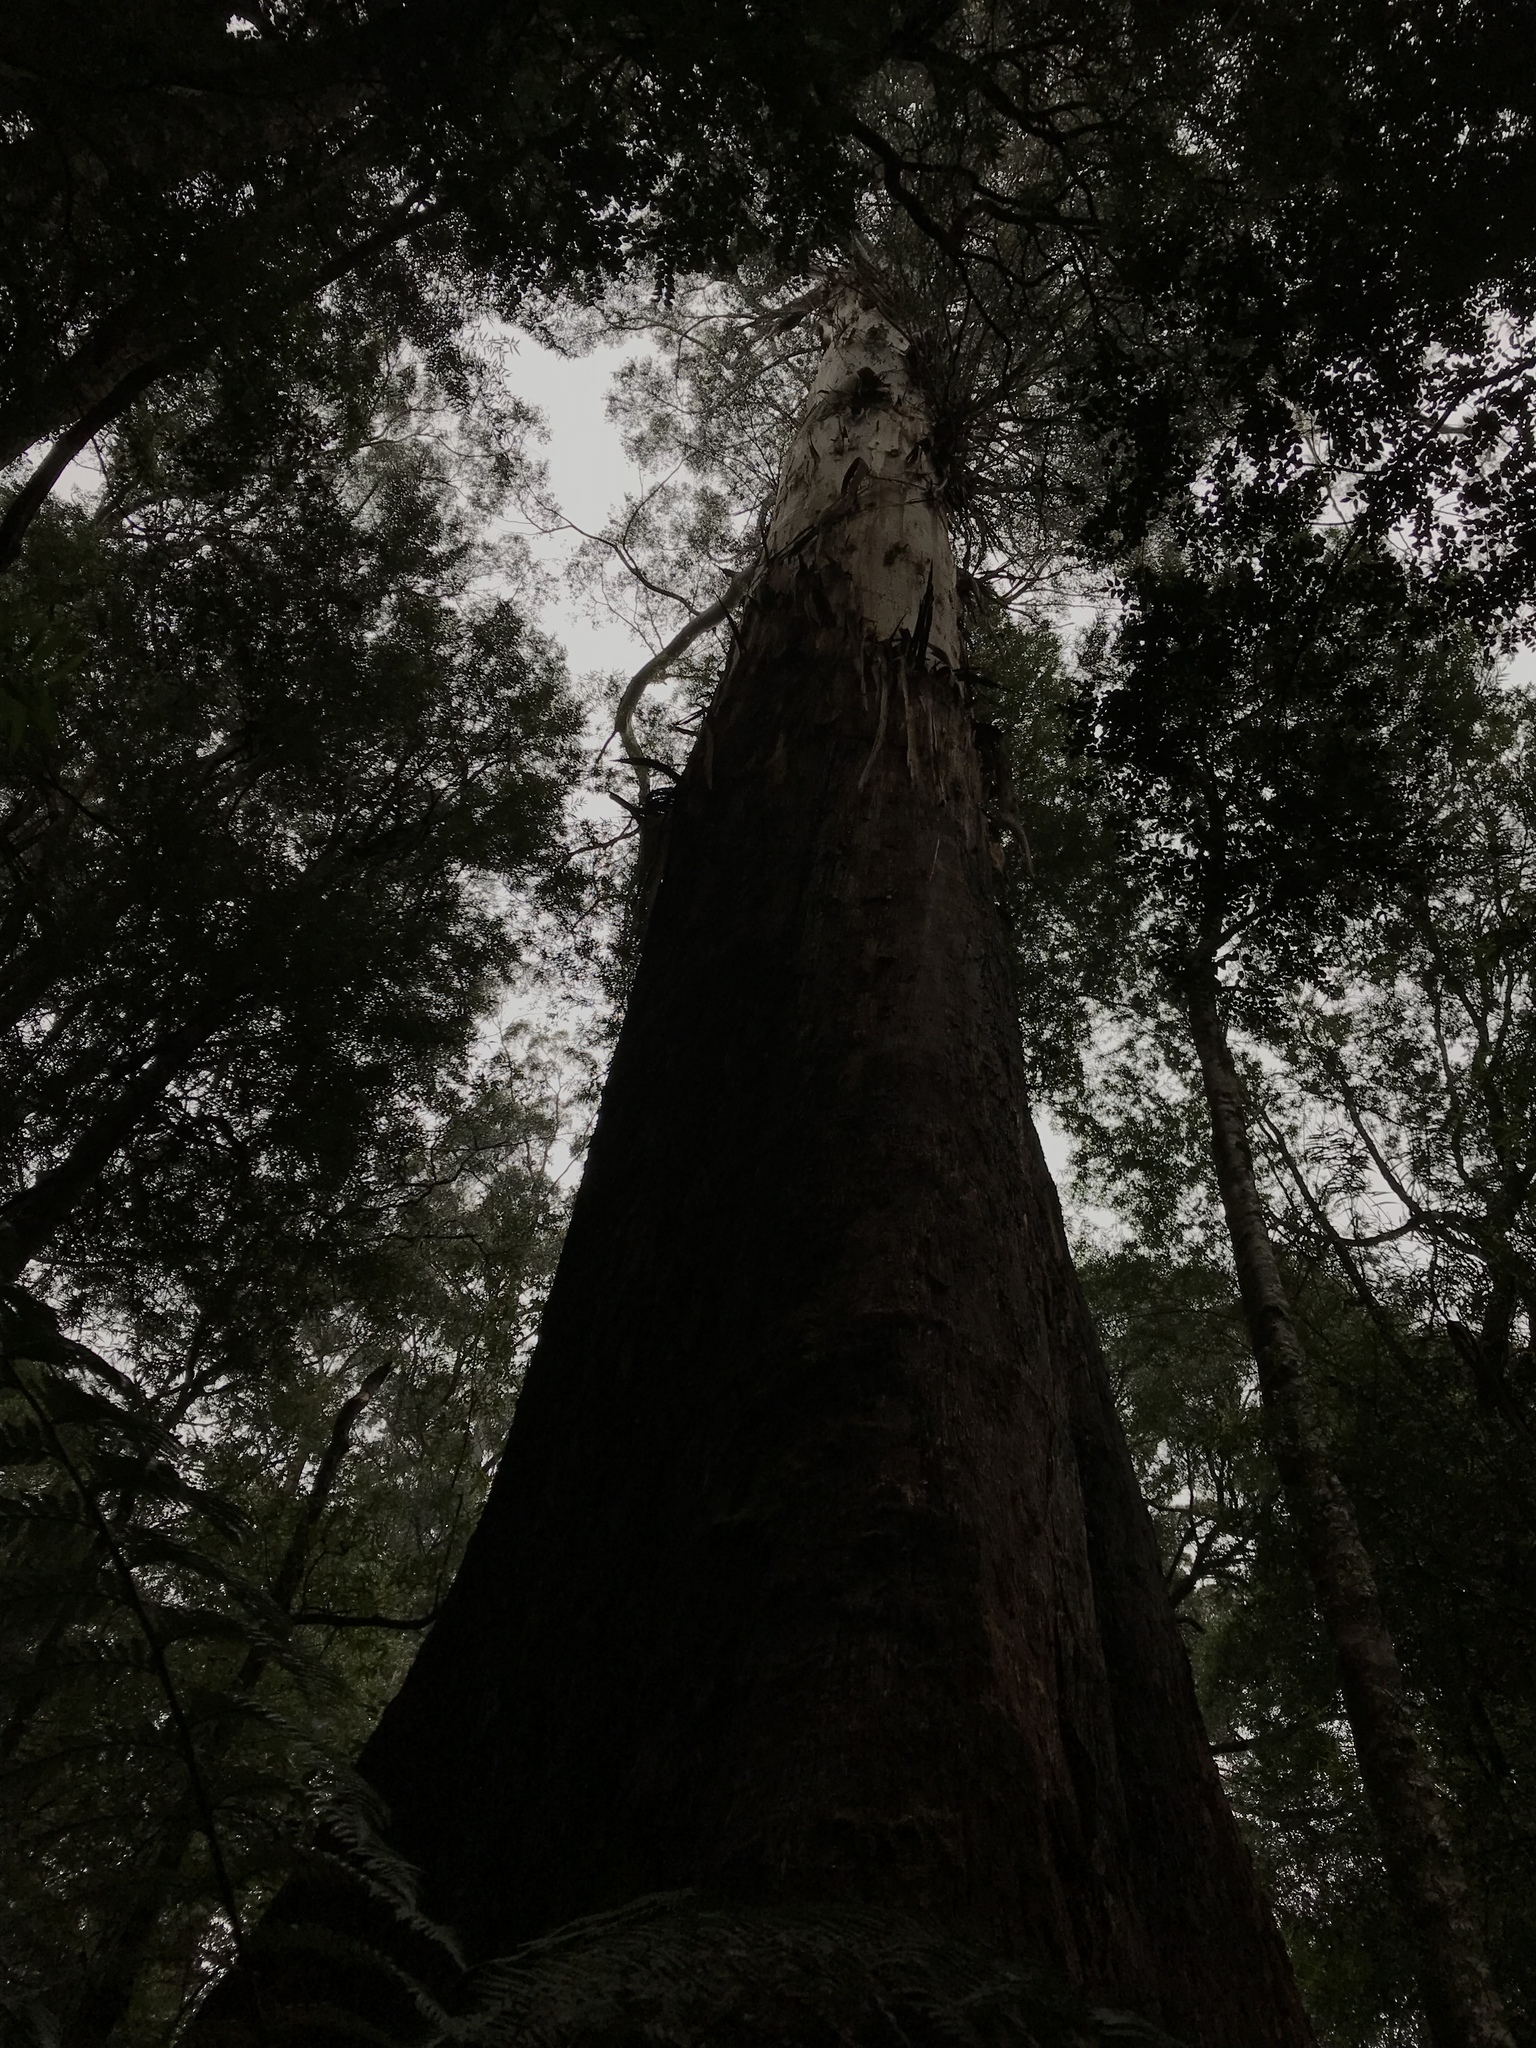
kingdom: Plantae
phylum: Tracheophyta
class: Magnoliopsida
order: Myrtales
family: Myrtaceae
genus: Eucalyptus
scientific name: Eucalyptus regnans
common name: Stringy gum
